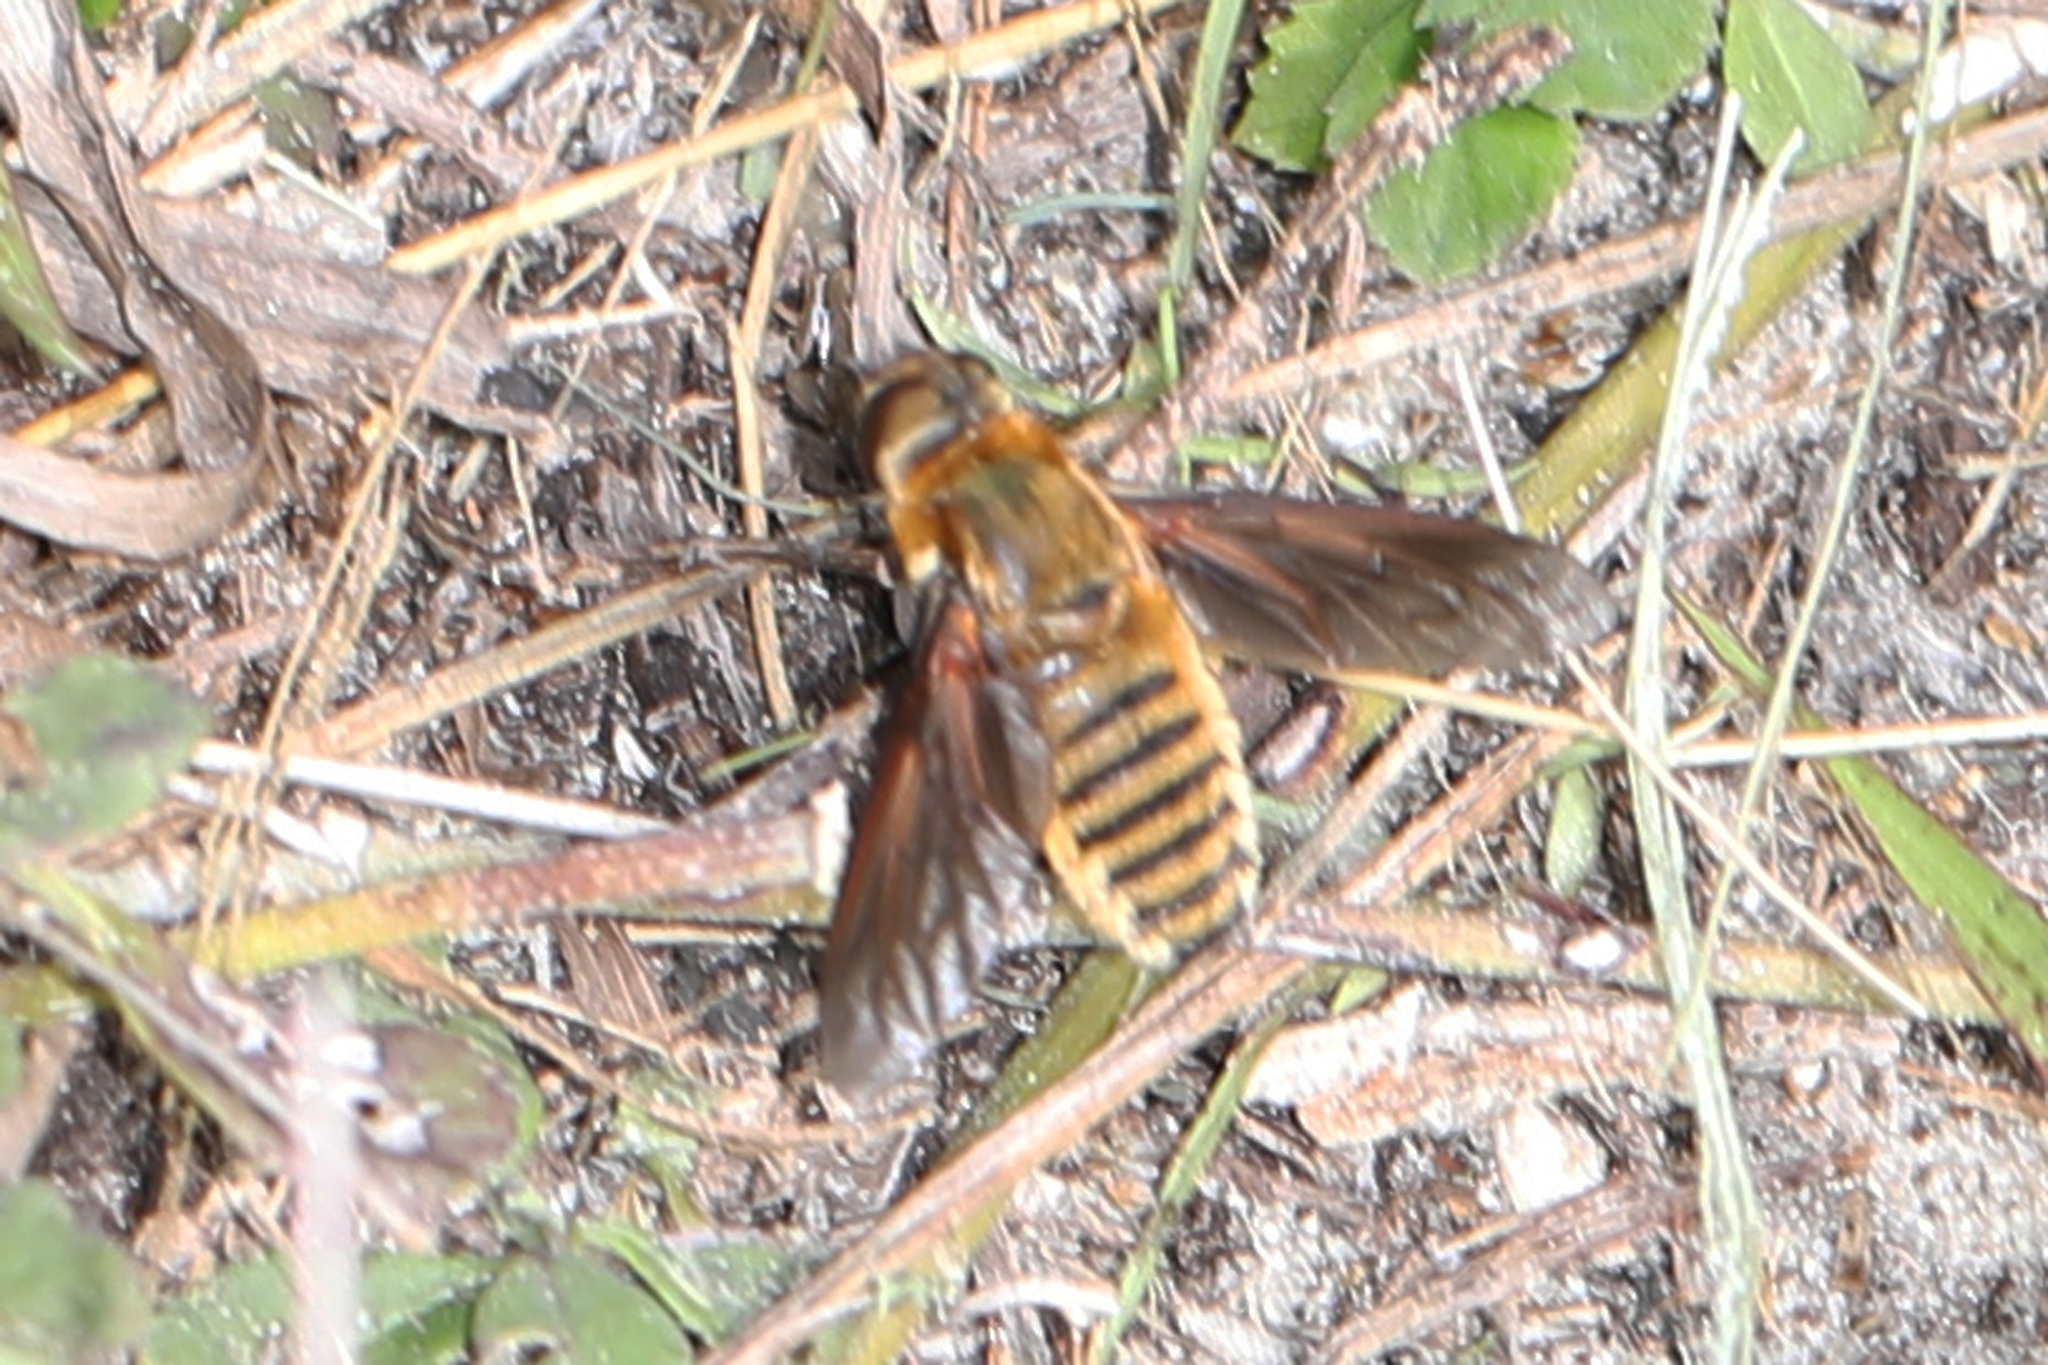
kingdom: Animalia
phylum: Arthropoda
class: Insecta
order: Diptera
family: Bombyliidae
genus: Poecilanthrax
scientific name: Poecilanthrax lucifer
